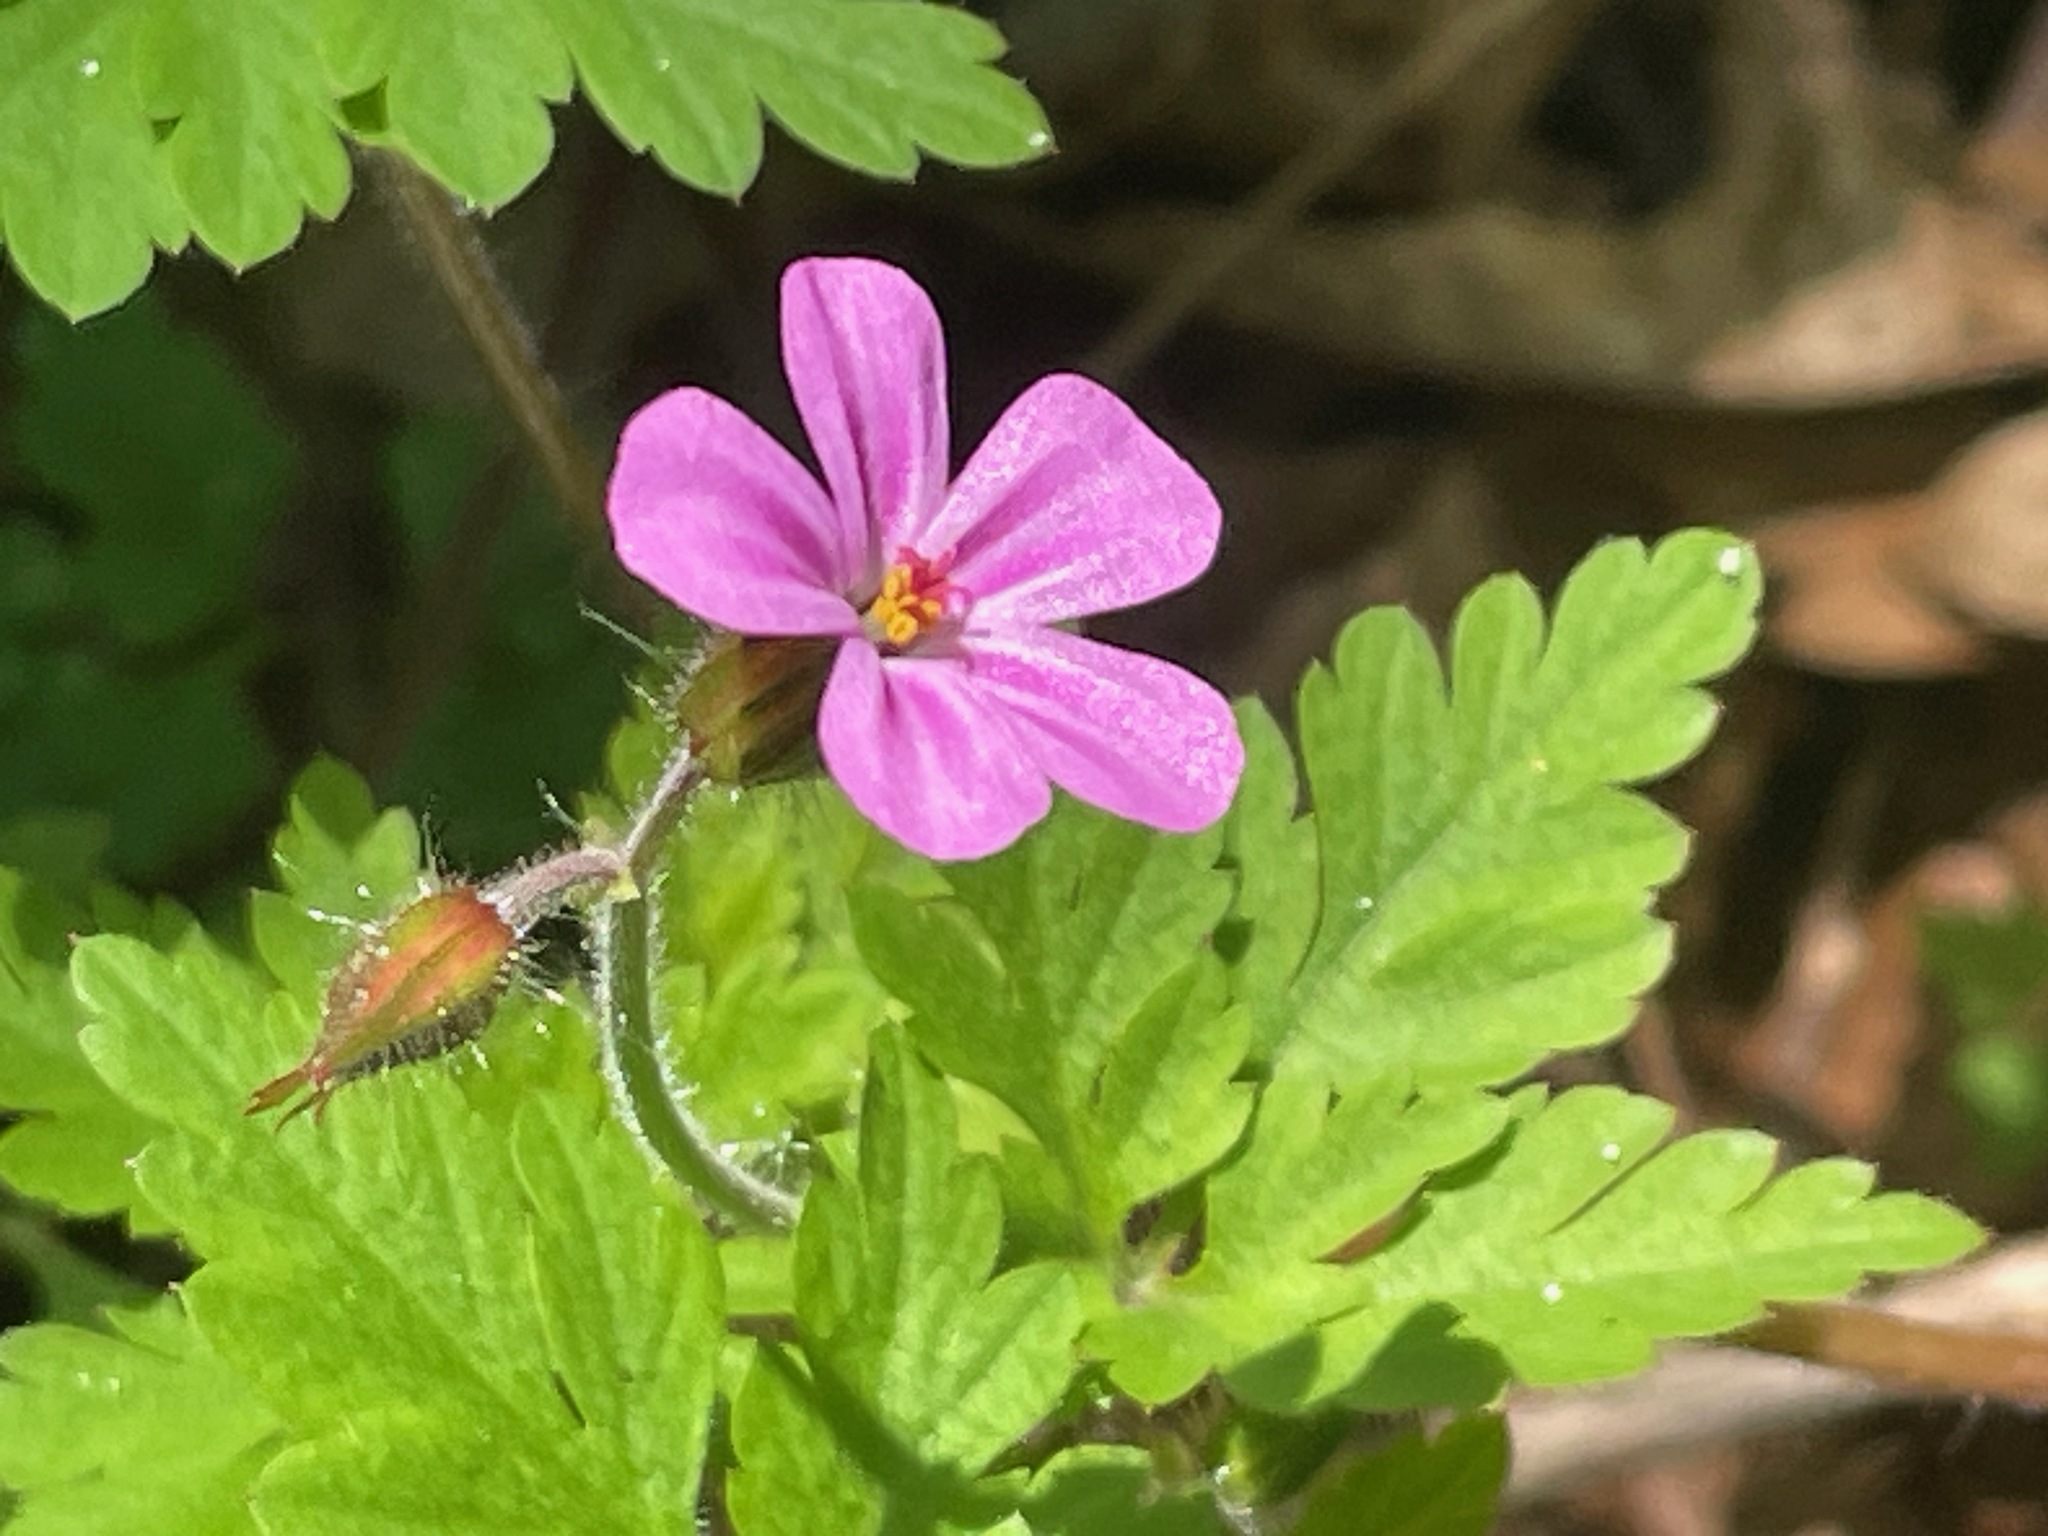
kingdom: Plantae
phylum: Tracheophyta
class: Magnoliopsida
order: Geraniales
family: Geraniaceae
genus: Geranium
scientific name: Geranium robertianum
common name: Herb-robert
